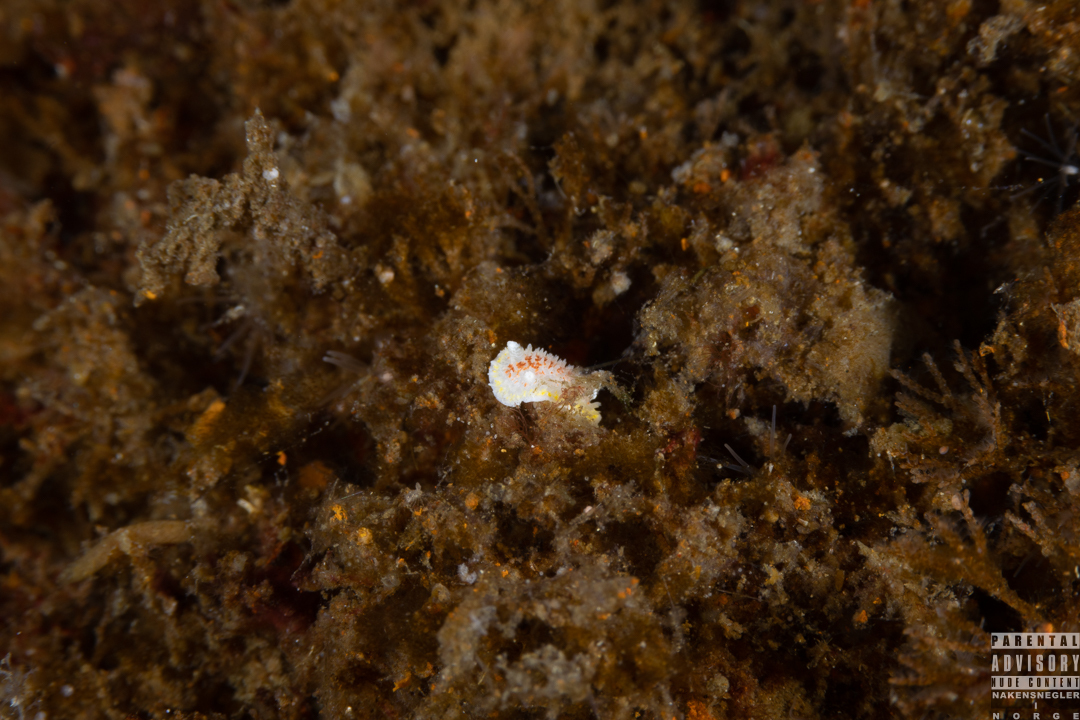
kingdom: Animalia
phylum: Mollusca
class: Gastropoda
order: Nudibranchia
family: Calycidorididae
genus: Diaphorodoris
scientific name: Diaphorodoris luteocincta
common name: Fried egg nudibranch
